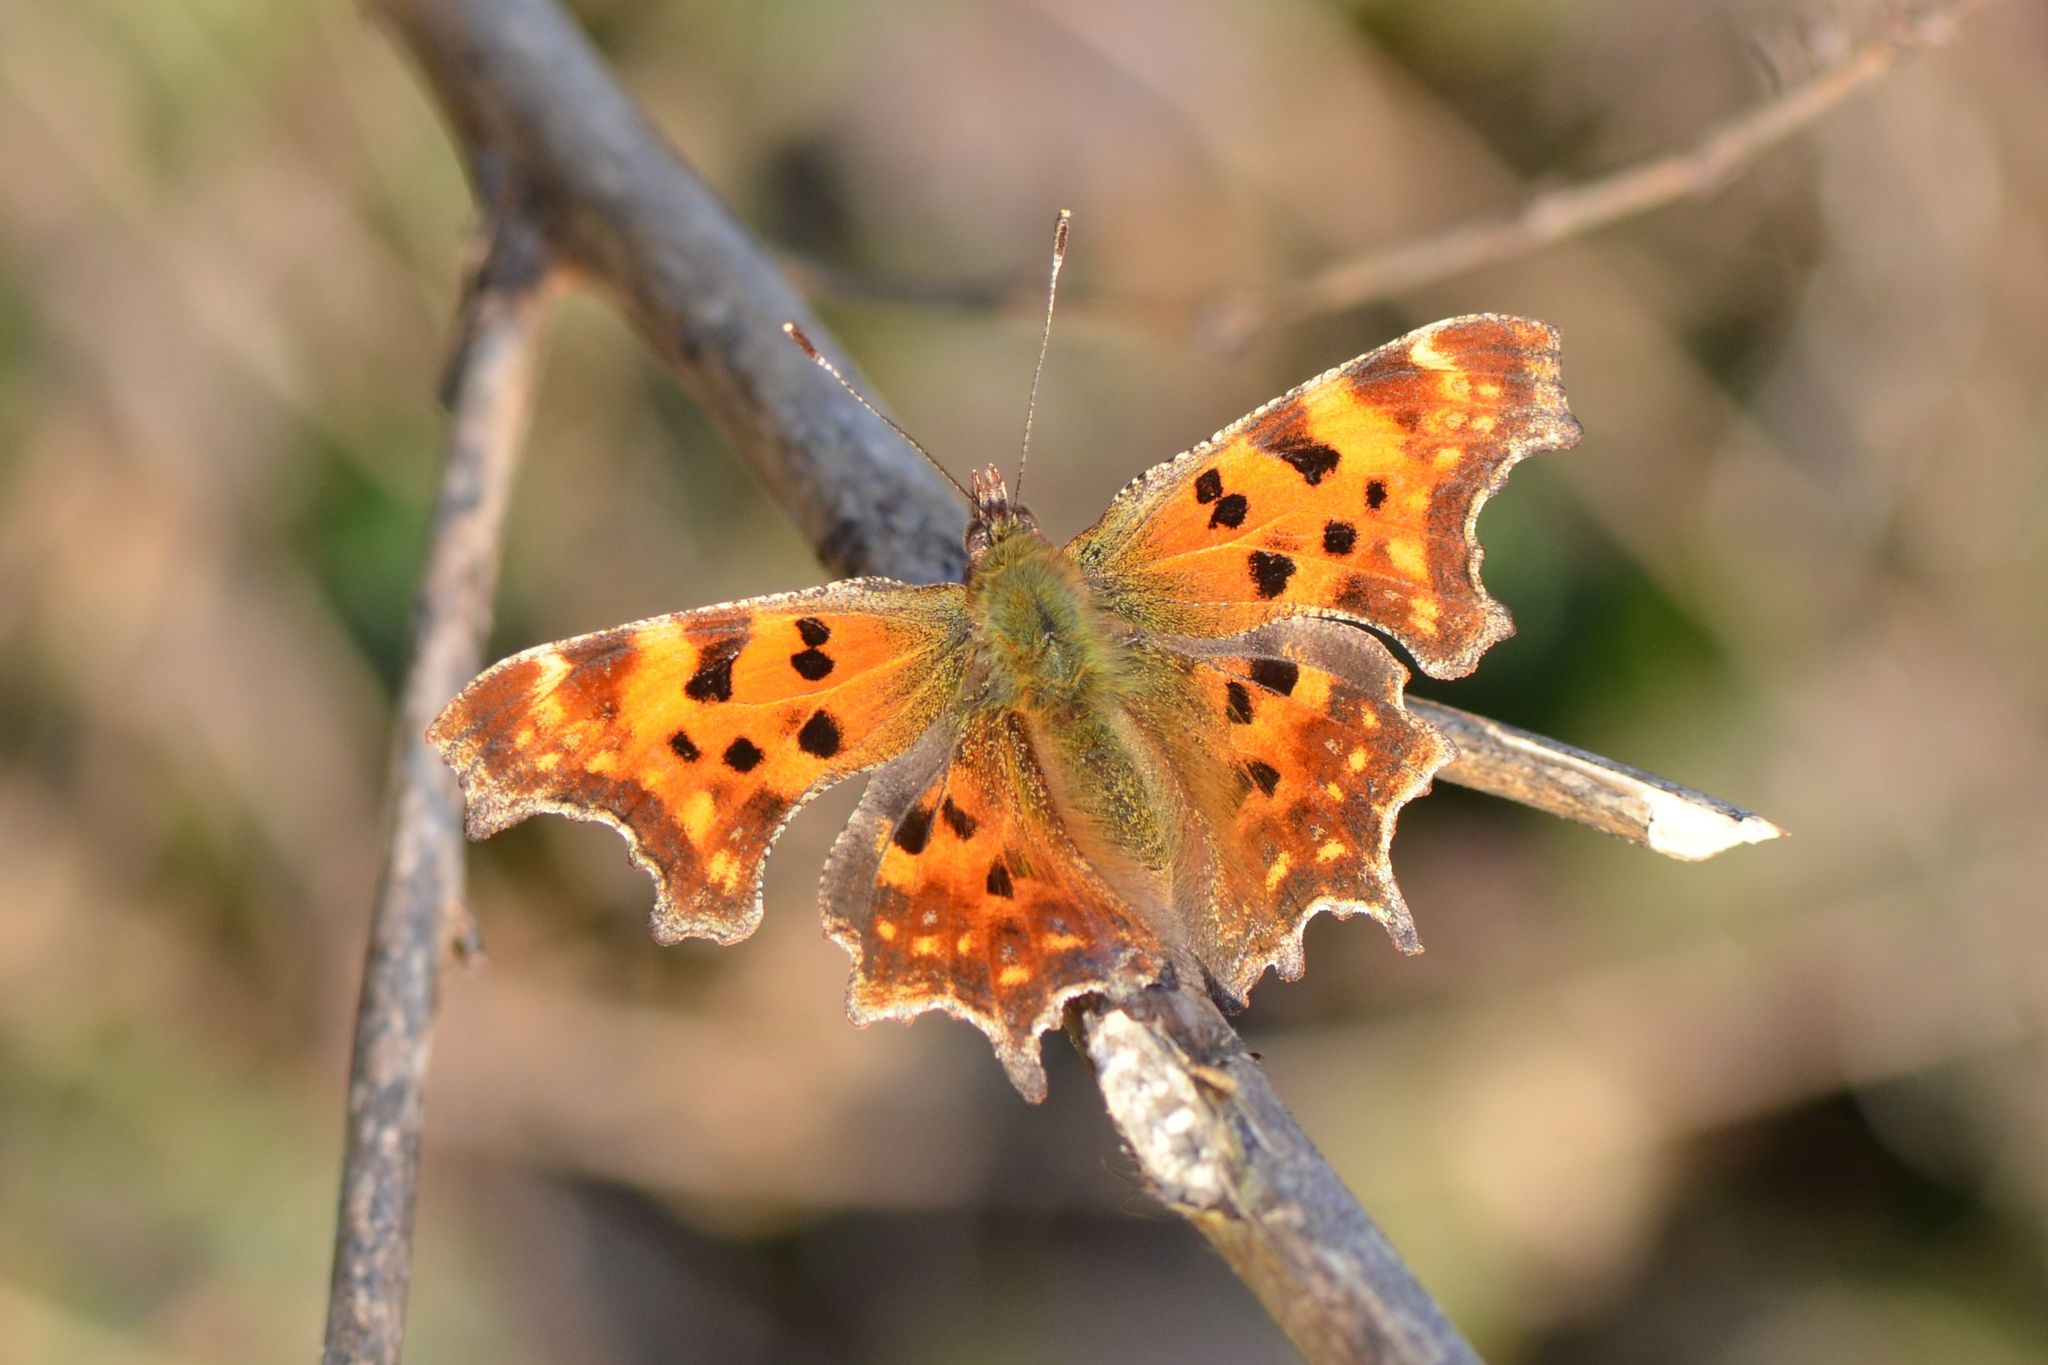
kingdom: Animalia
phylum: Arthropoda
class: Insecta
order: Lepidoptera
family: Nymphalidae
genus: Polygonia
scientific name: Polygonia c-album
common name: Comma
